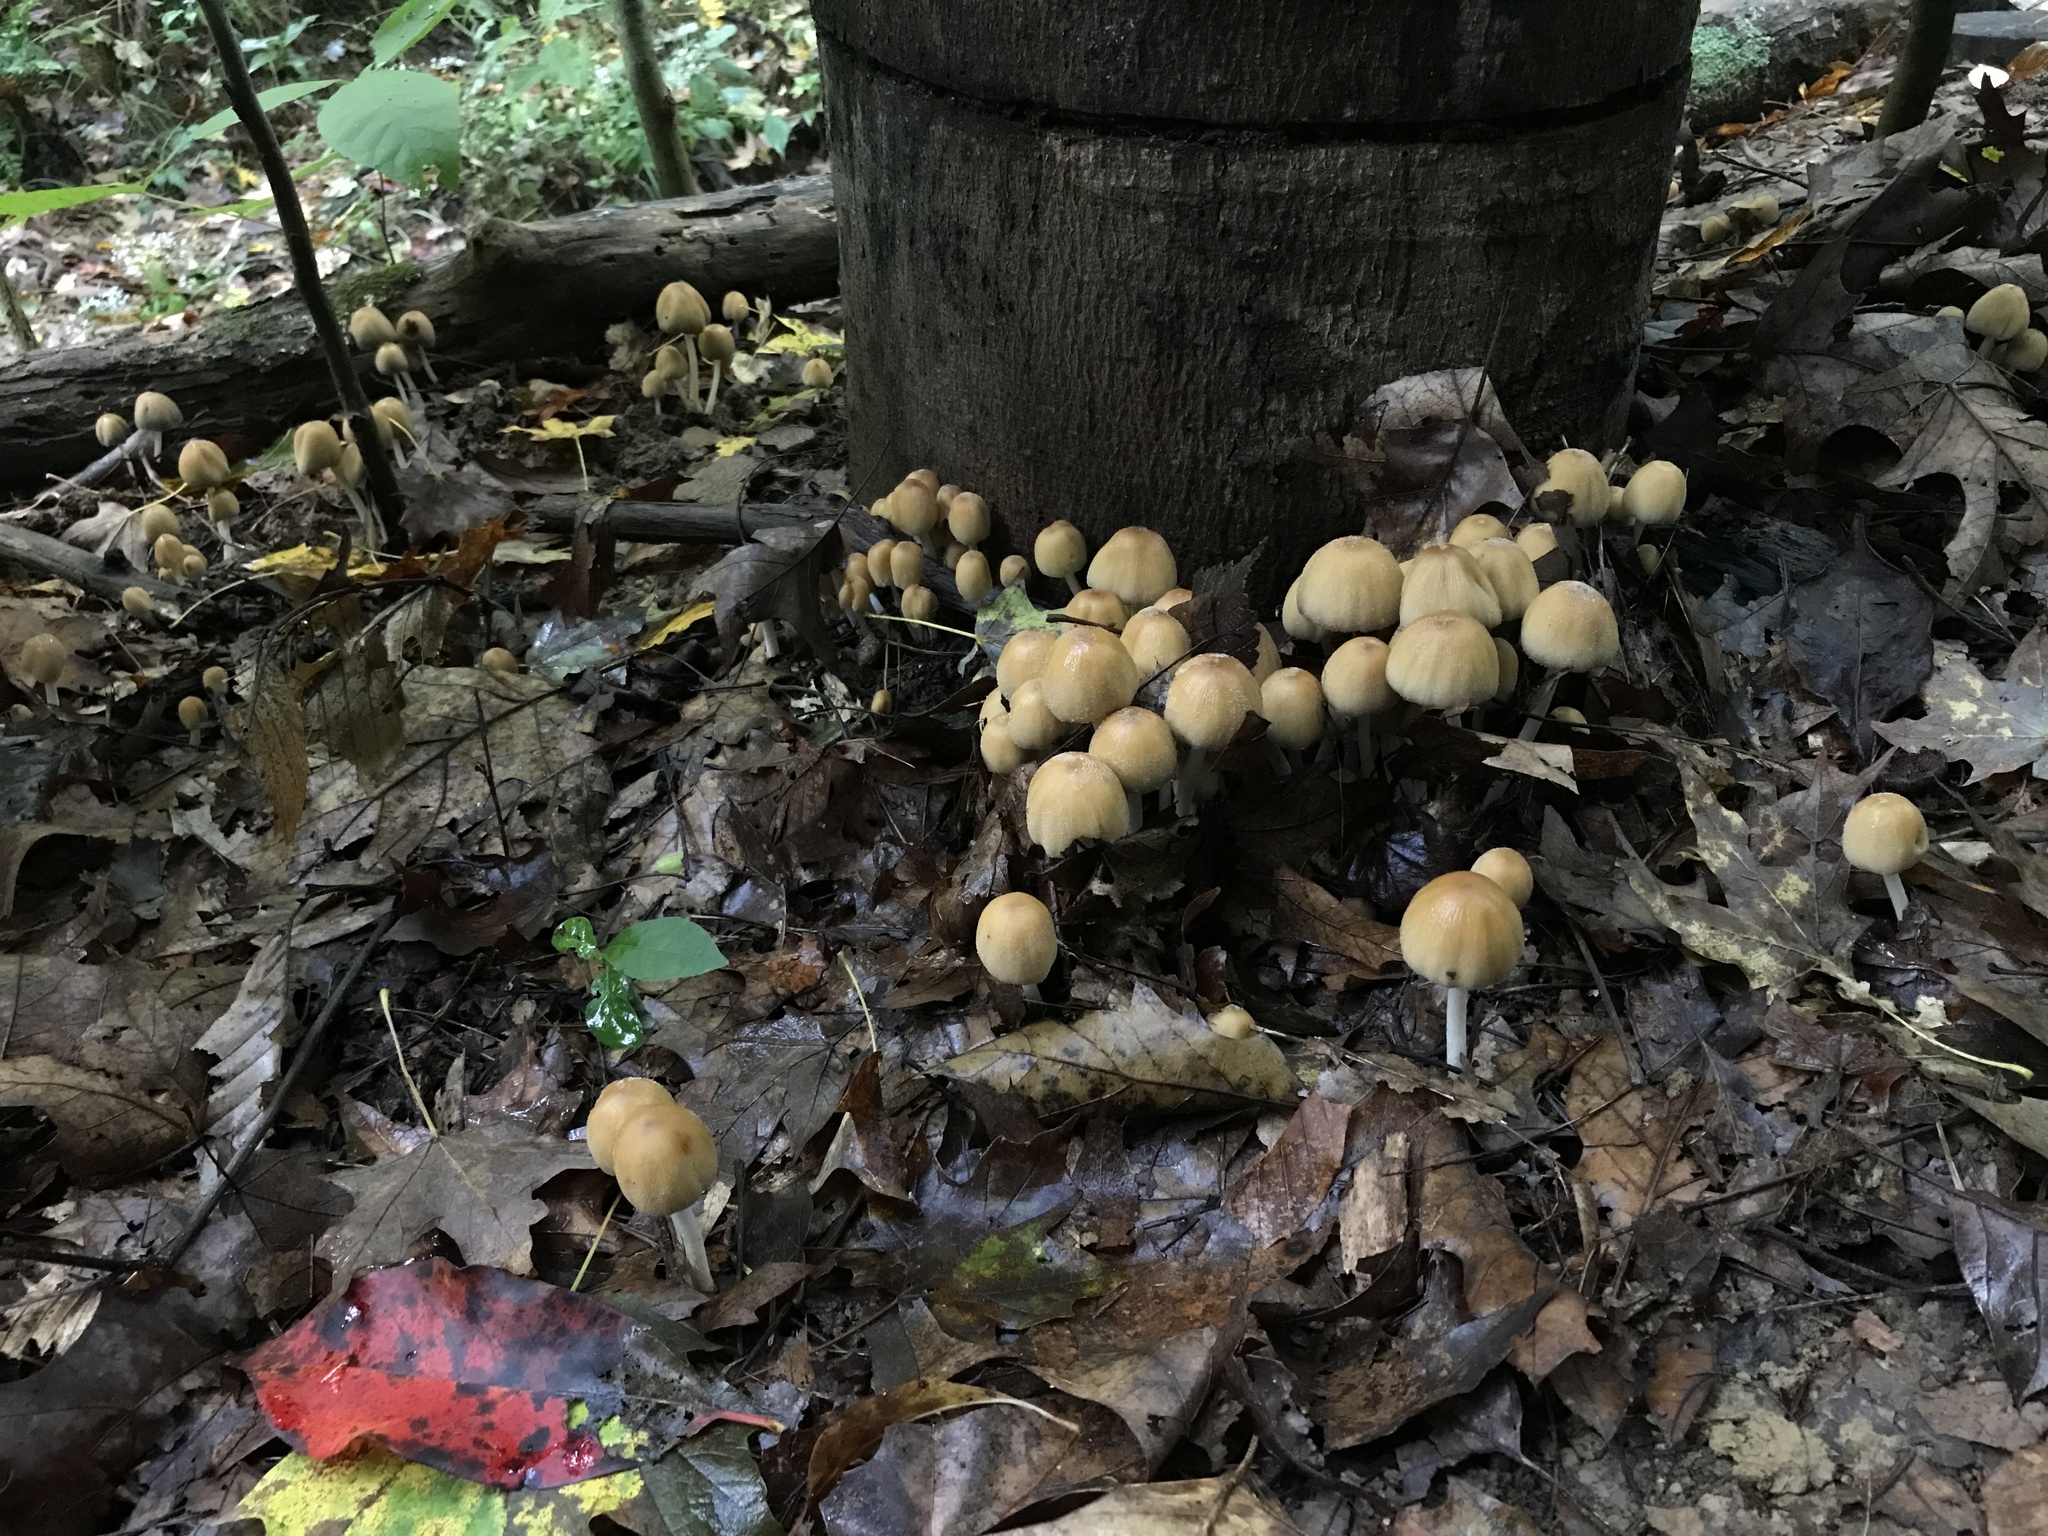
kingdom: Fungi
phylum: Basidiomycota
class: Agaricomycetes
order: Agaricales
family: Psathyrellaceae
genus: Coprinellus
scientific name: Coprinellus micaceus
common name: Glistening ink-cap
